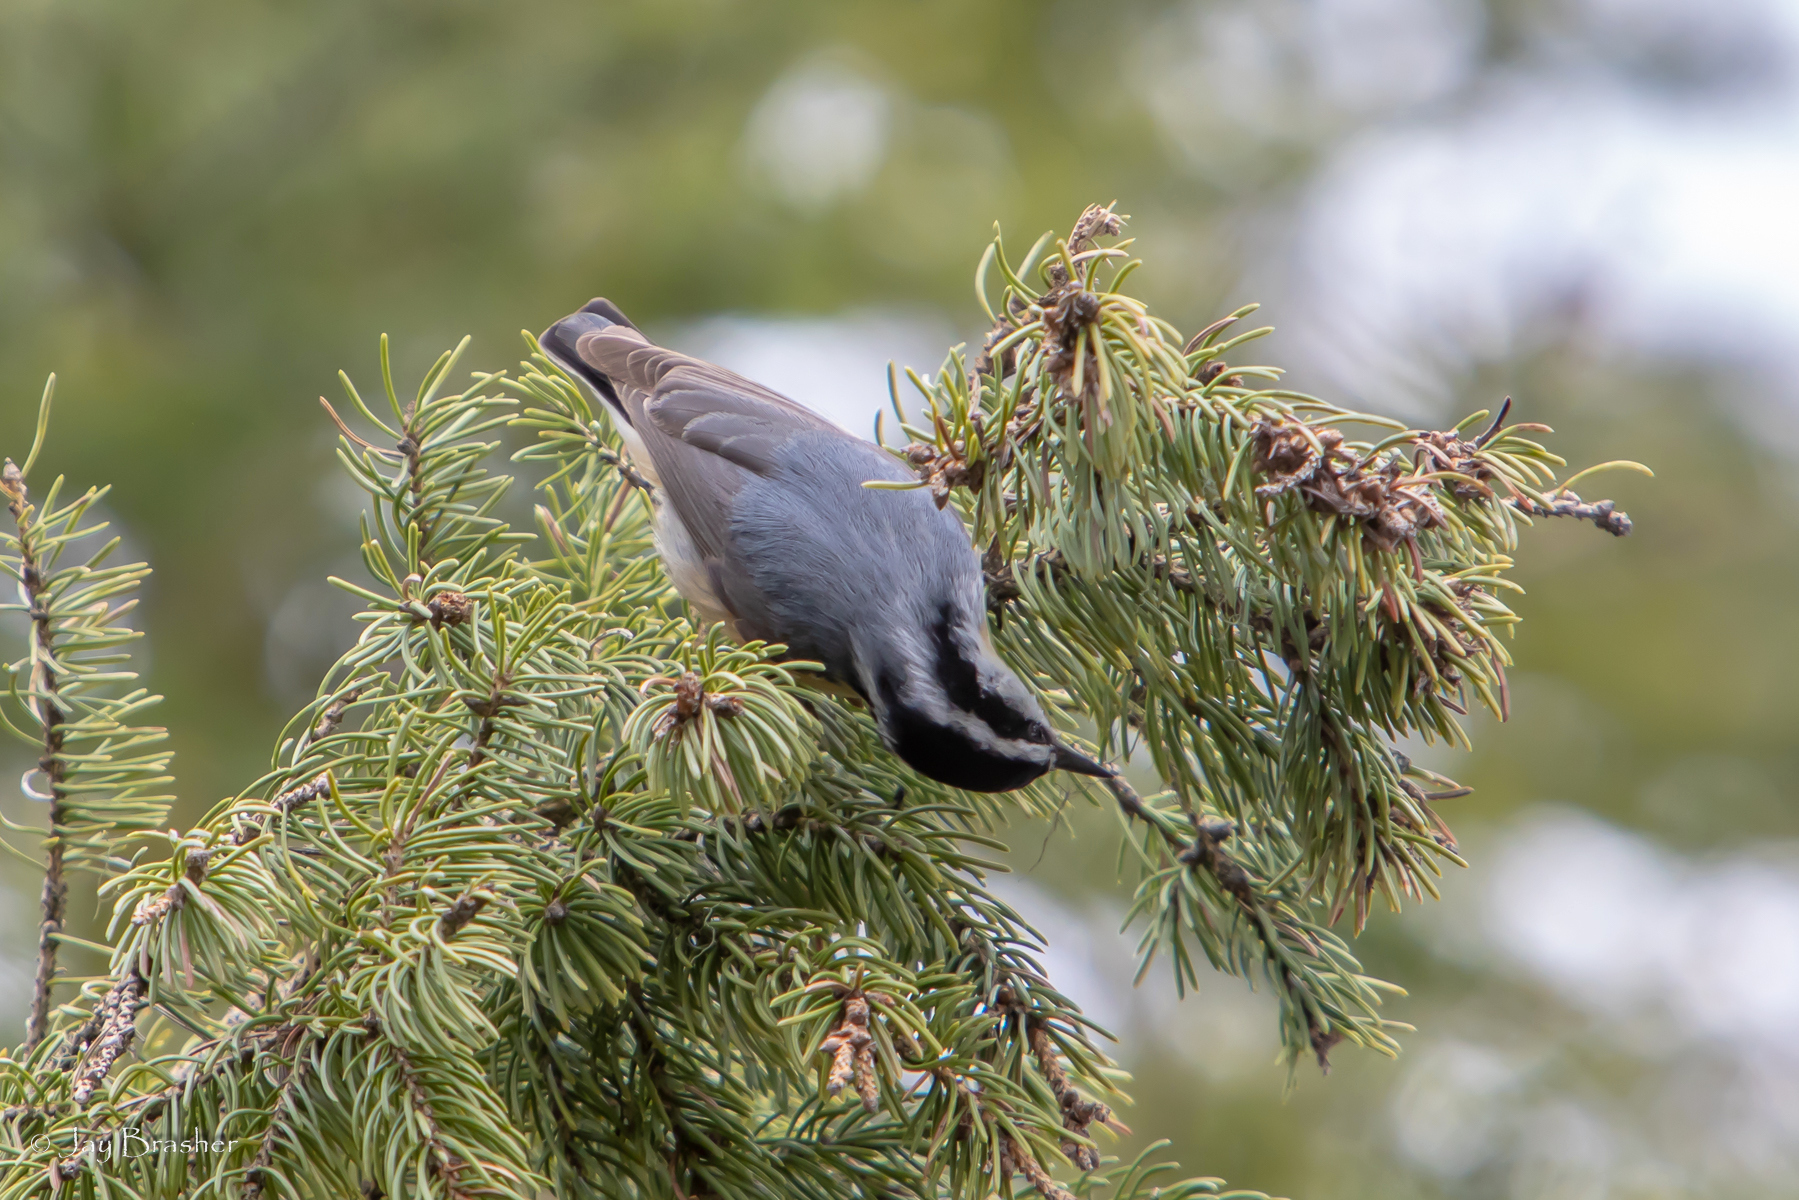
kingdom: Animalia
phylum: Chordata
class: Aves
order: Passeriformes
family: Sittidae
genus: Sitta
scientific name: Sitta canadensis
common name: Red-breasted nuthatch
